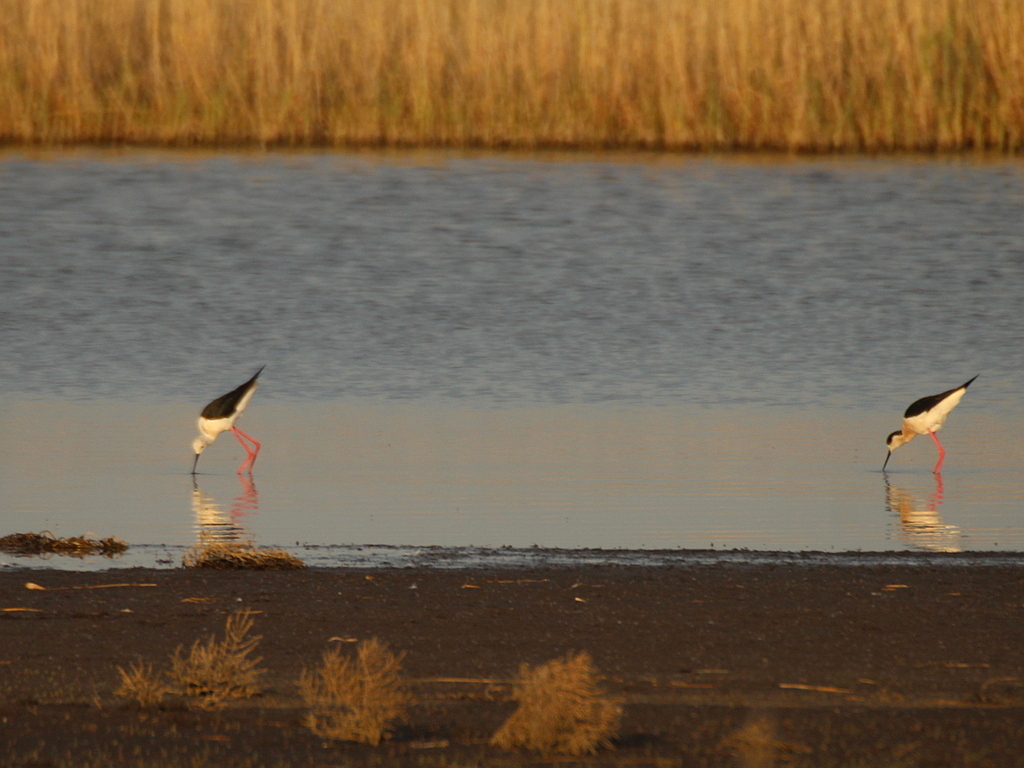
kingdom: Animalia
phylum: Chordata
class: Aves
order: Charadriiformes
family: Recurvirostridae
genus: Himantopus
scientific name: Himantopus himantopus
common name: Black-winged stilt
